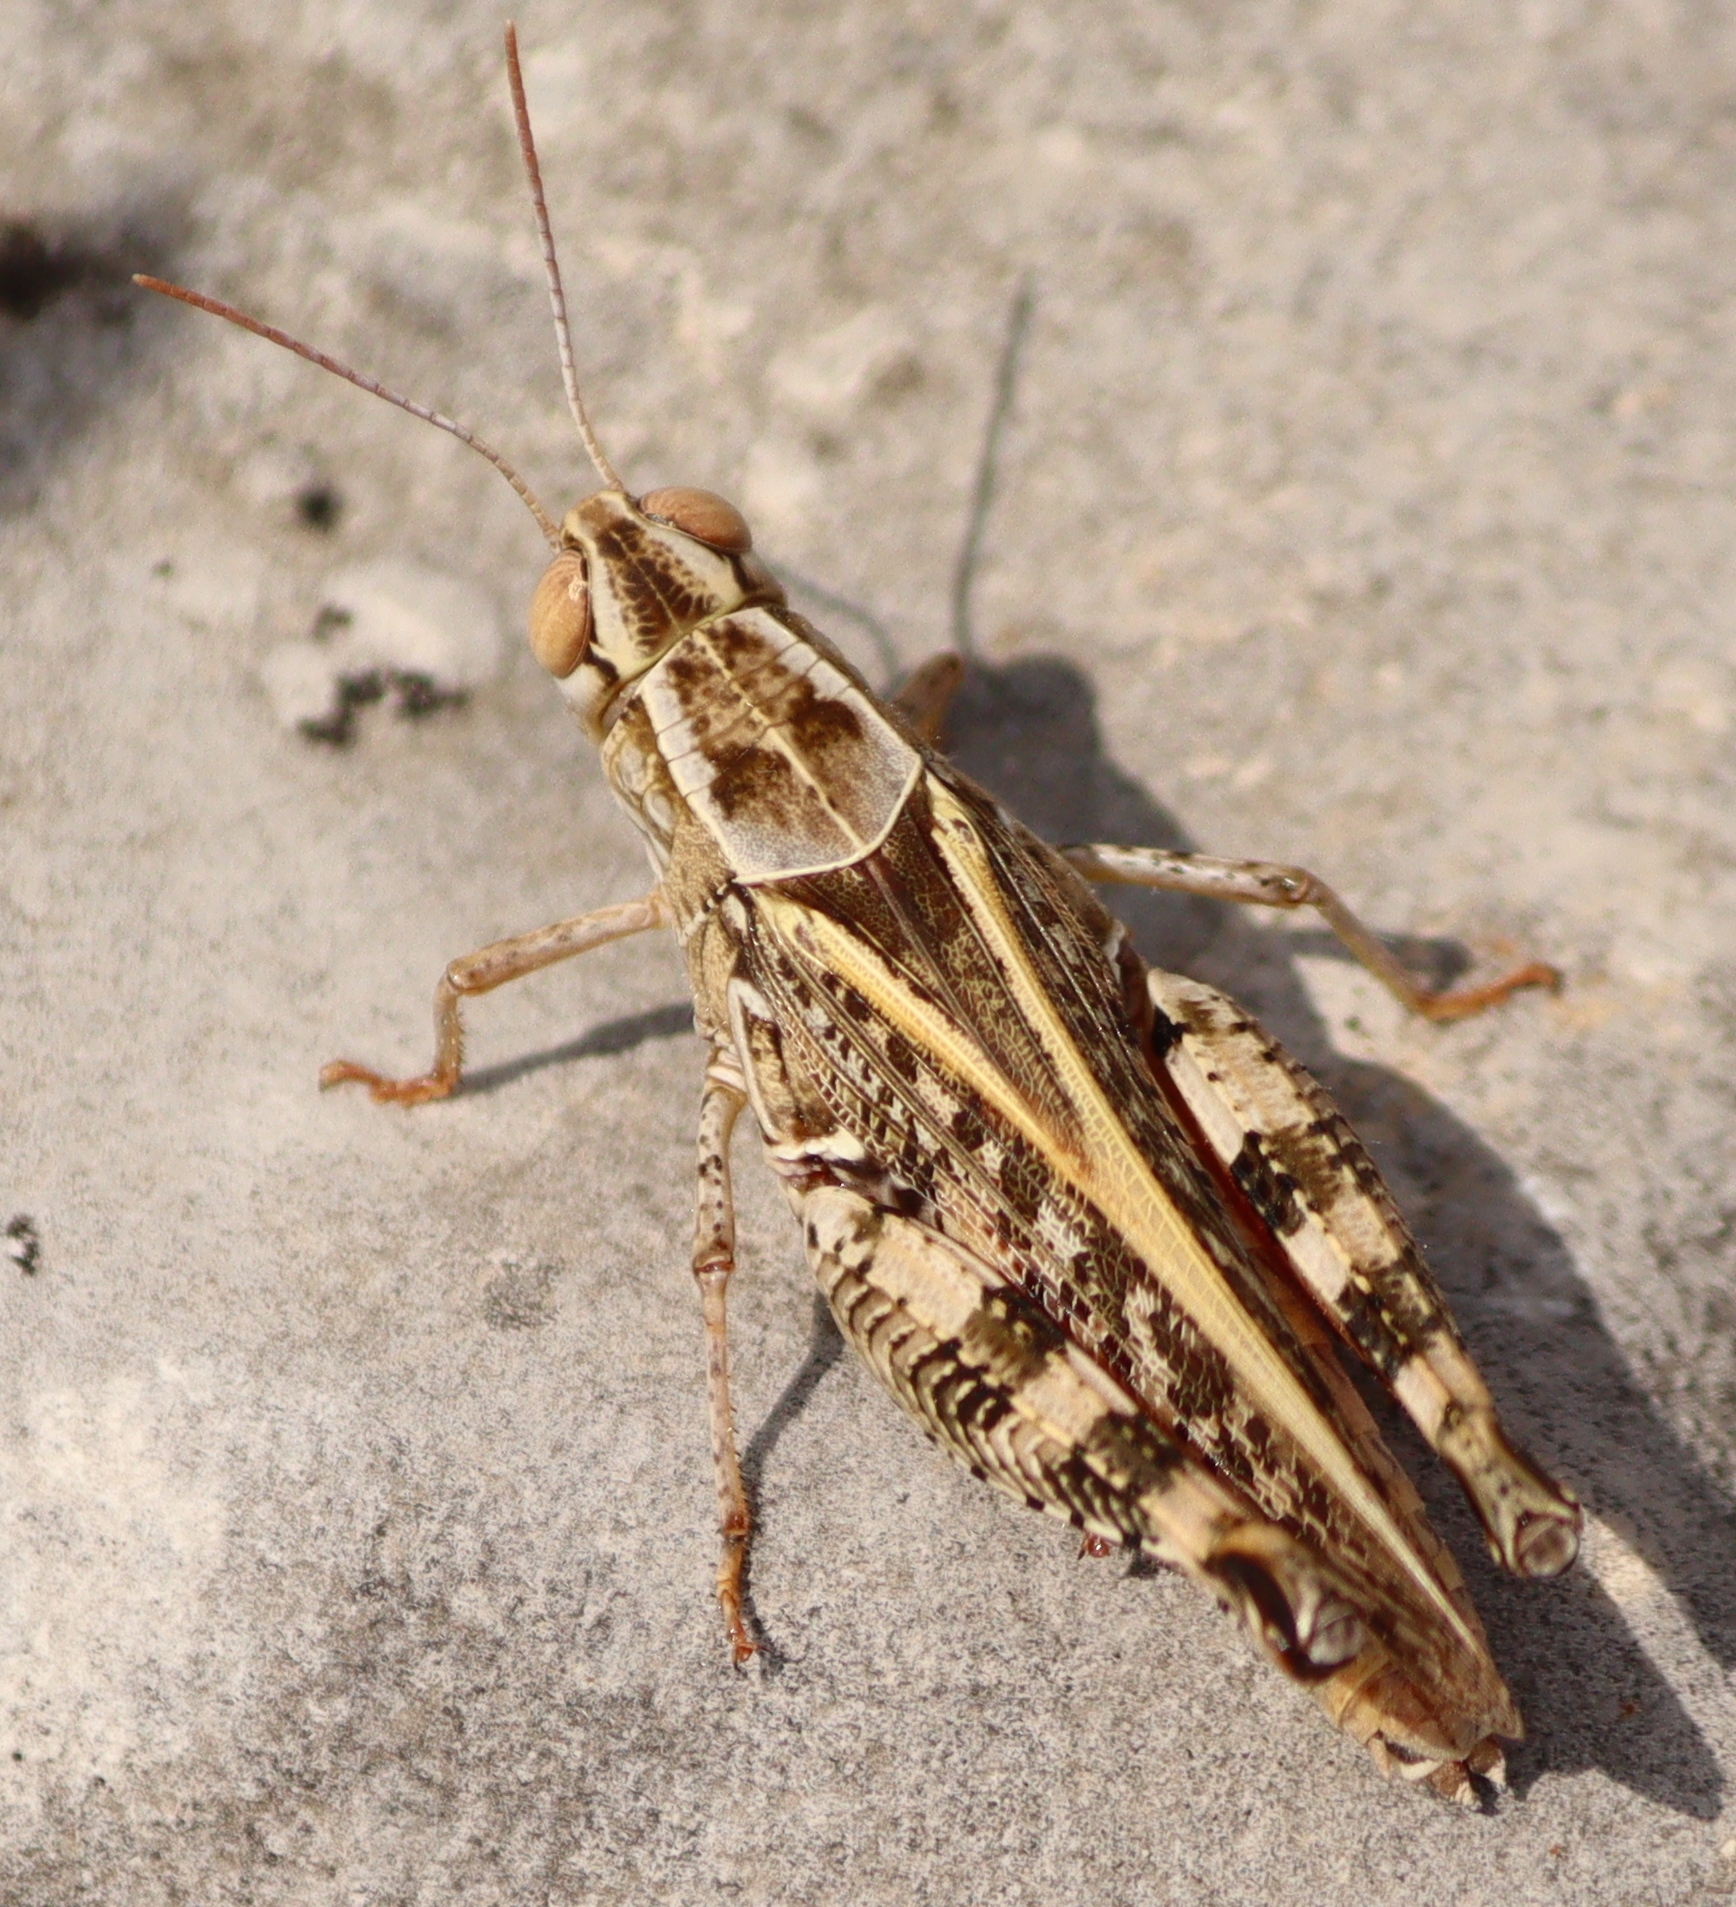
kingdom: Animalia
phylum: Arthropoda
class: Insecta
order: Orthoptera
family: Acrididae
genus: Calliptamus
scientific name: Calliptamus italicus
